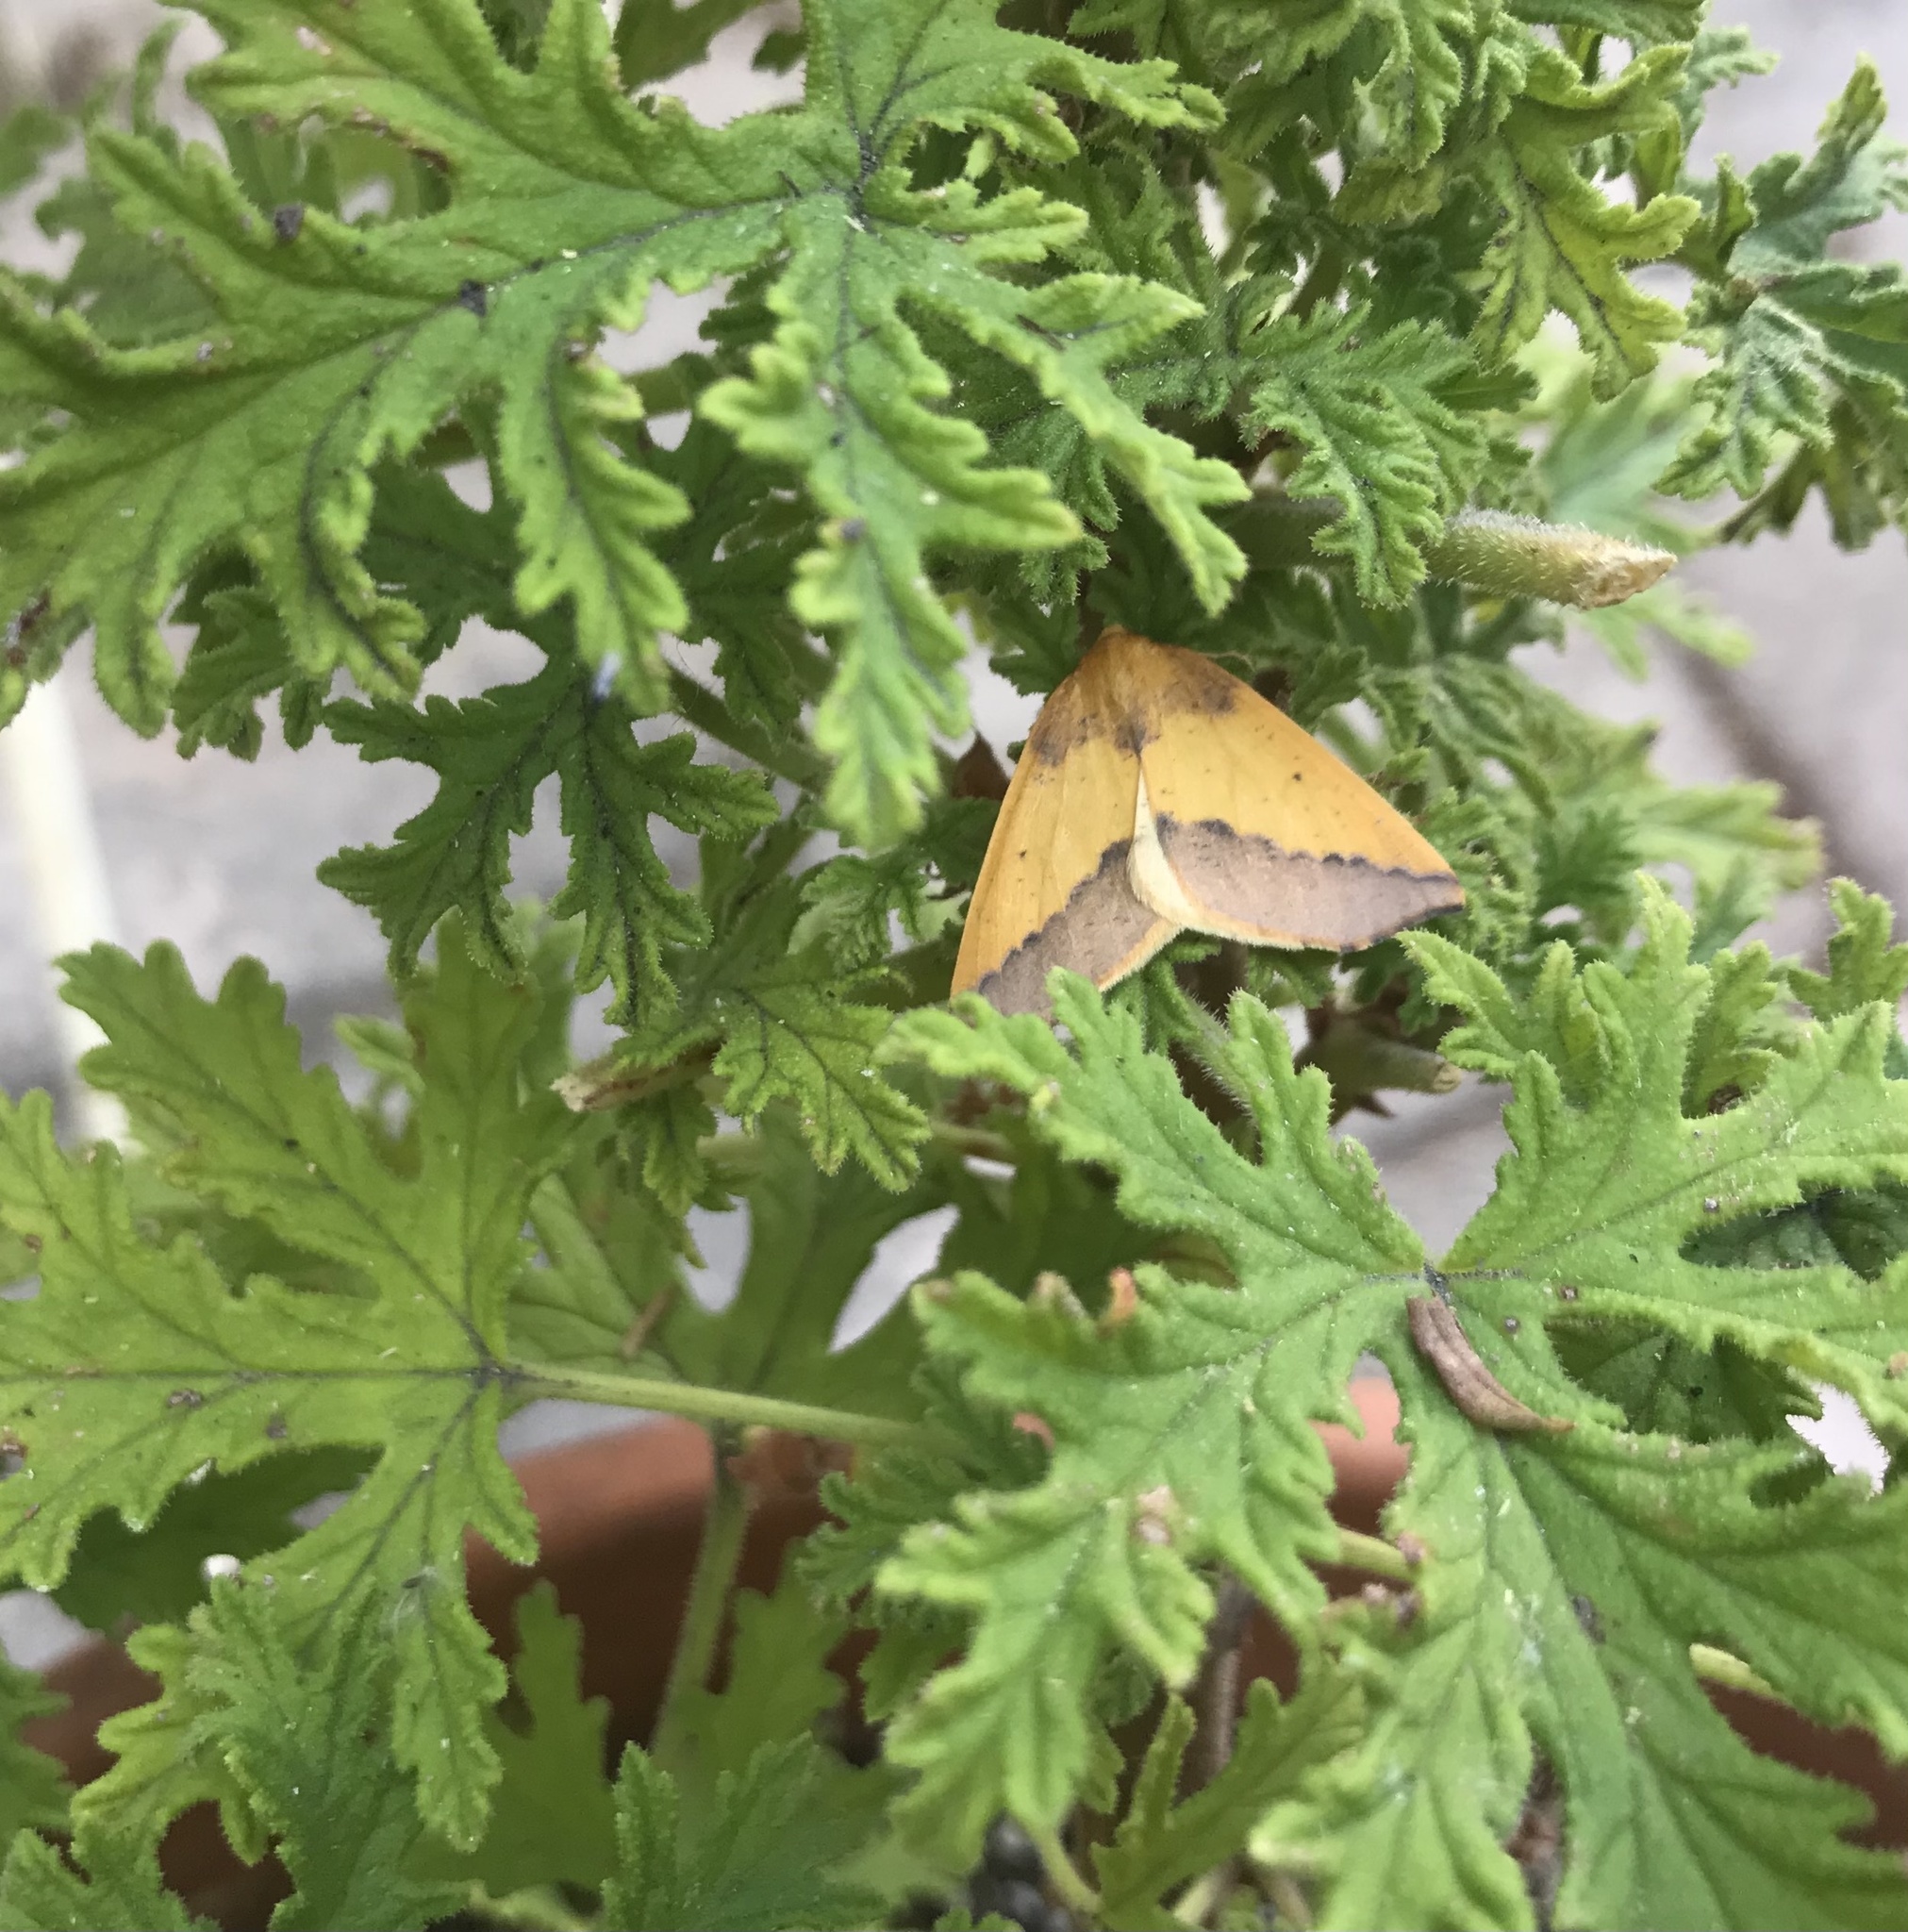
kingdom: Animalia
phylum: Arthropoda
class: Insecta
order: Lepidoptera
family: Geometridae
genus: Neoterpes
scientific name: Neoterpes edwardsata
